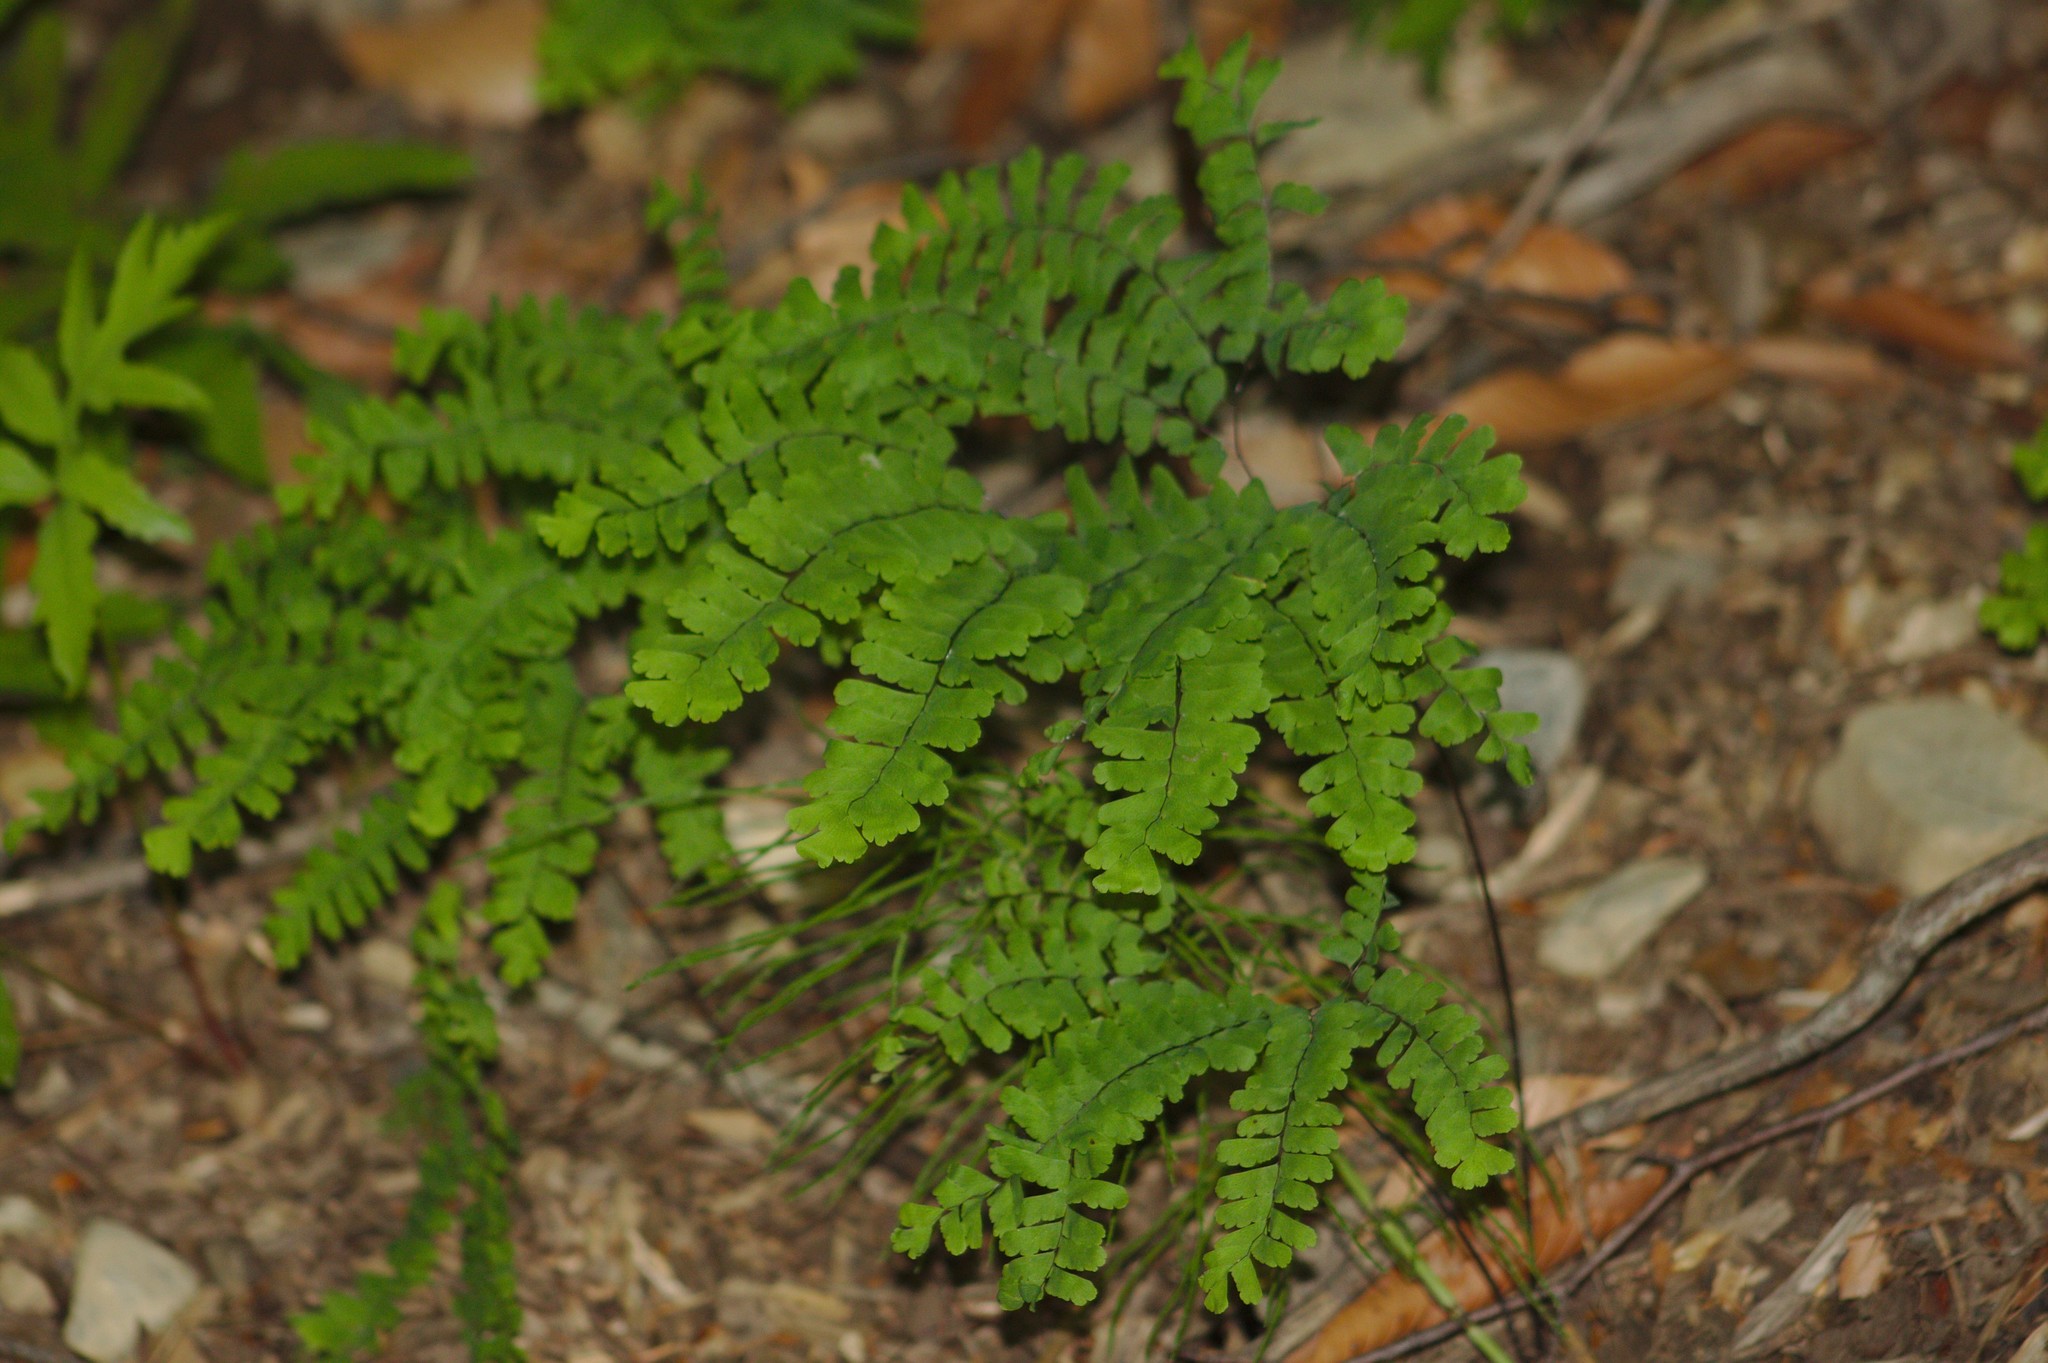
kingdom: Plantae
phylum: Tracheophyta
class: Polypodiopsida
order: Polypodiales
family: Pteridaceae
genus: Adiantum
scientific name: Adiantum pedatum
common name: Five-finger fern
